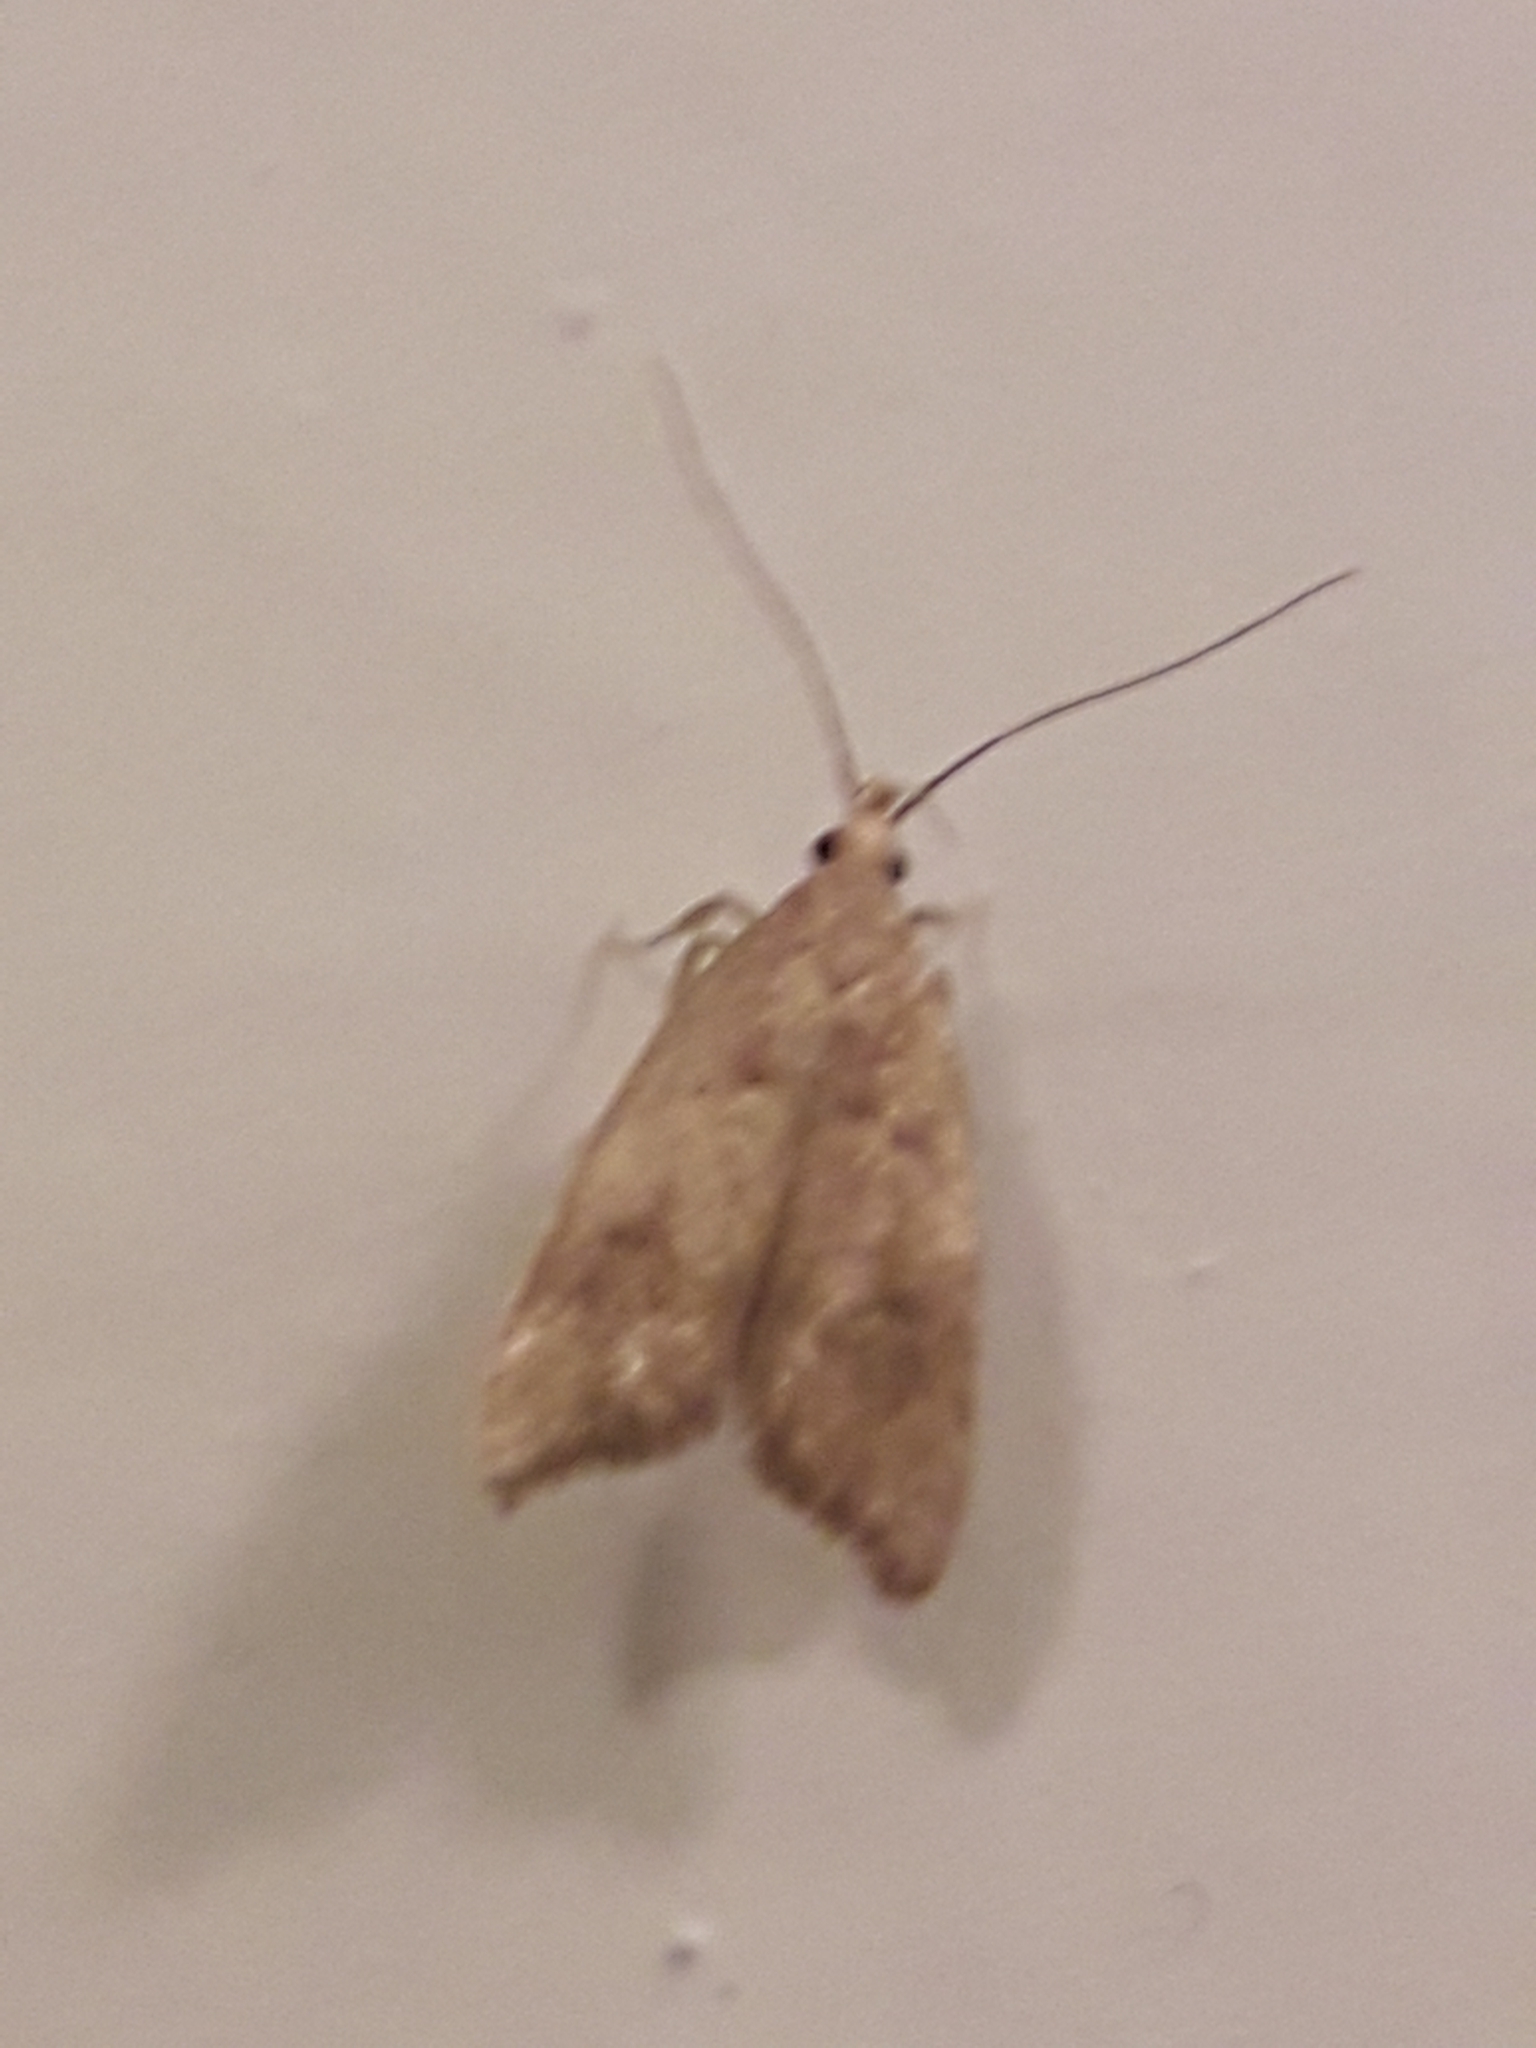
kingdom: Animalia
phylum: Arthropoda
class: Insecta
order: Lepidoptera
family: Oecophoridae
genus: Gymnobathra
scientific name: Gymnobathra hamatella
